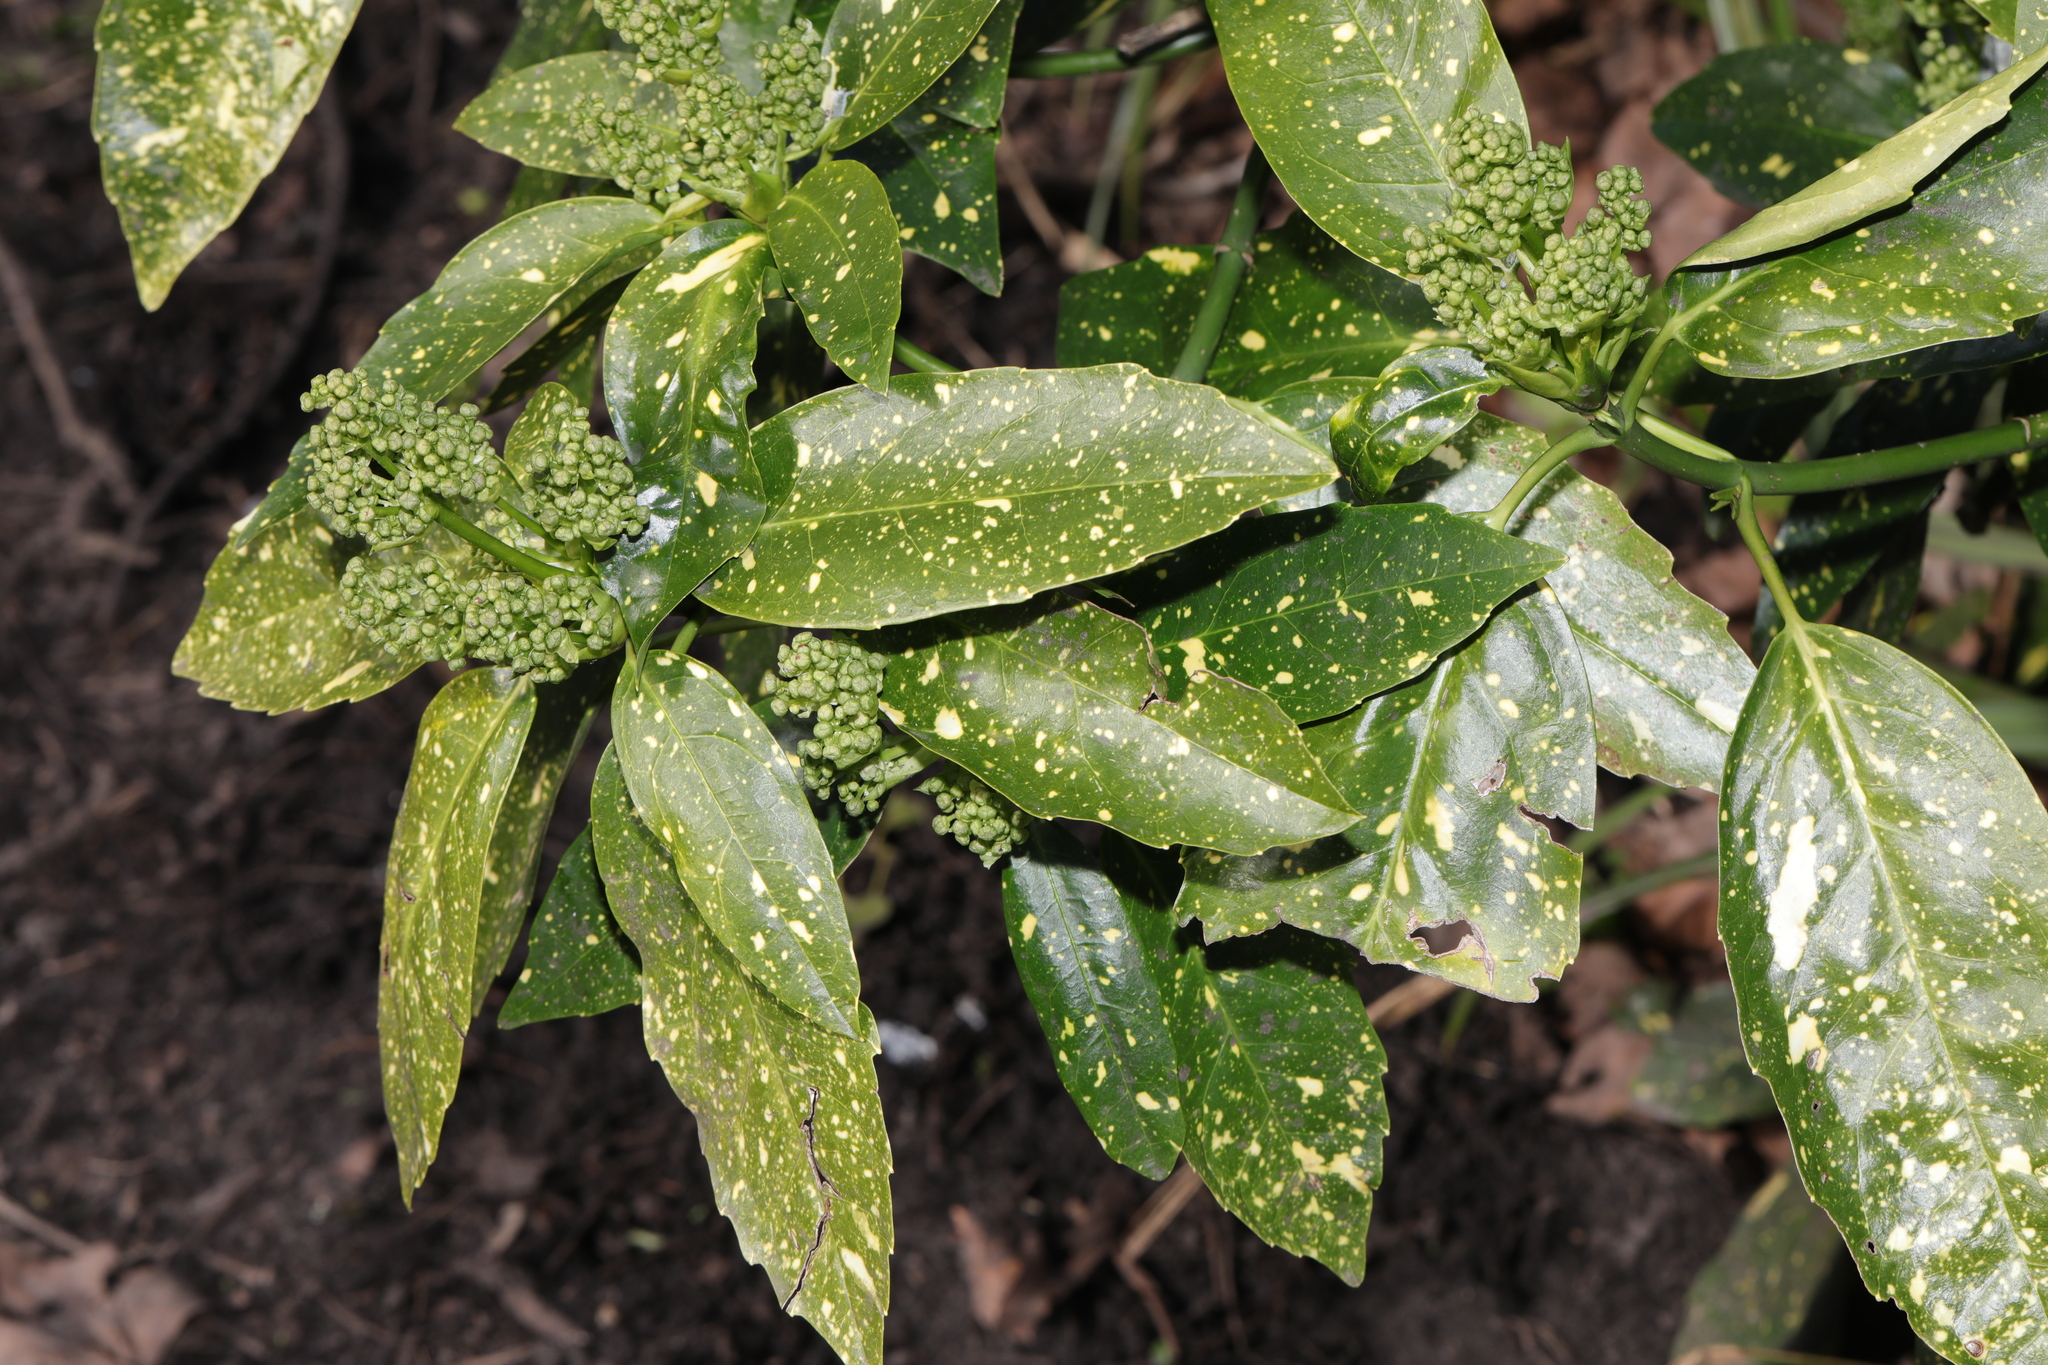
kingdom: Plantae
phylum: Tracheophyta
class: Magnoliopsida
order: Garryales
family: Garryaceae
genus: Aucuba
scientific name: Aucuba japonica
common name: Spotted-laurel
